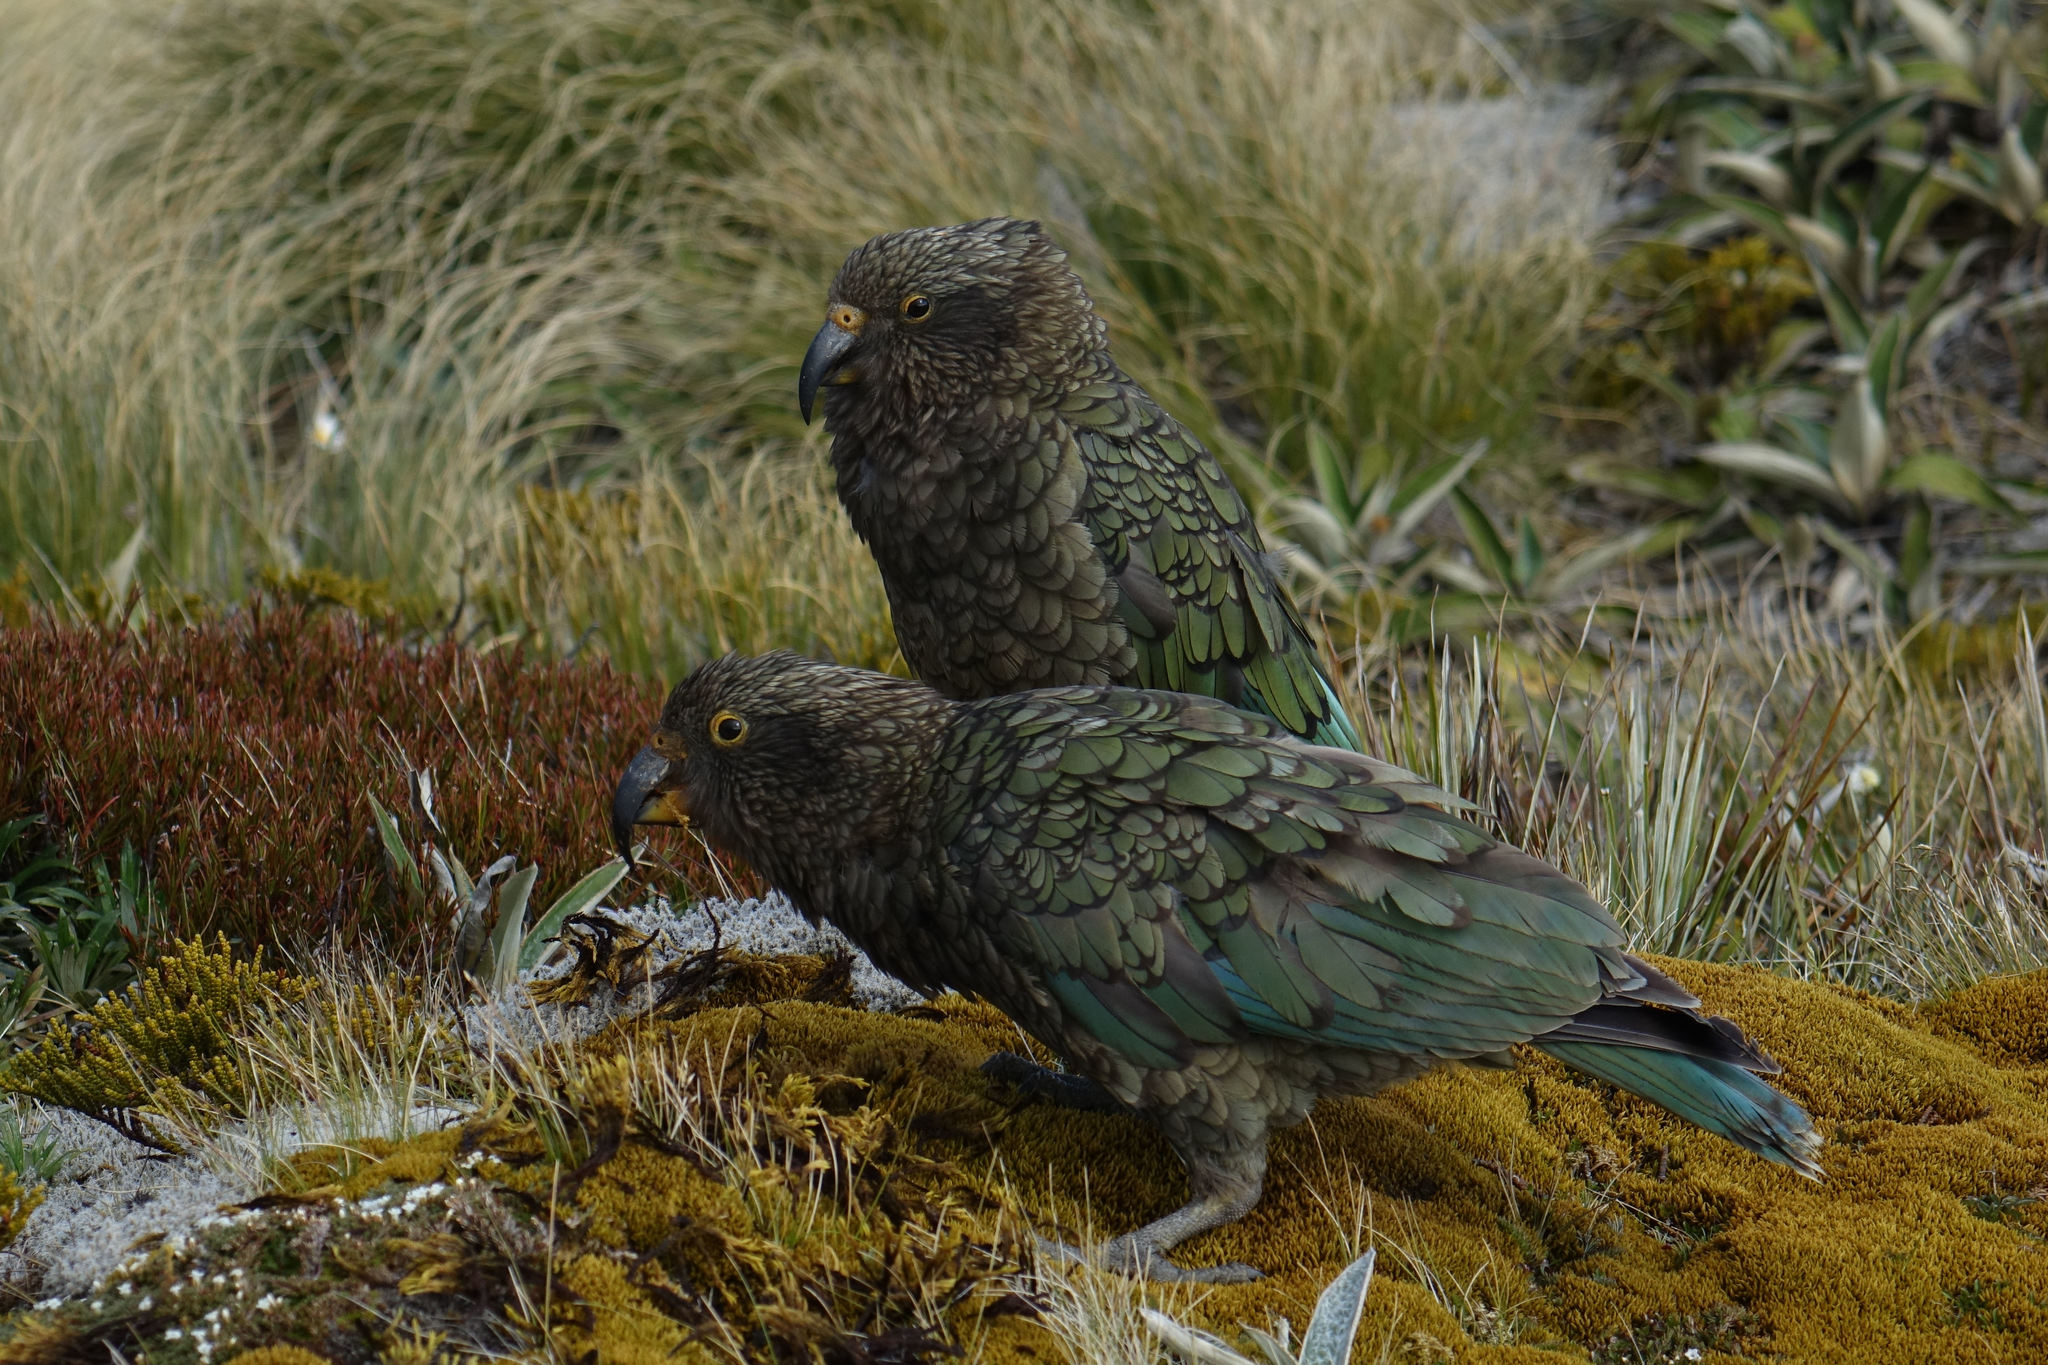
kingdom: Animalia
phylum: Chordata
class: Aves
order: Psittaciformes
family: Psittacidae
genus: Nestor
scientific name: Nestor notabilis
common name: Kea
